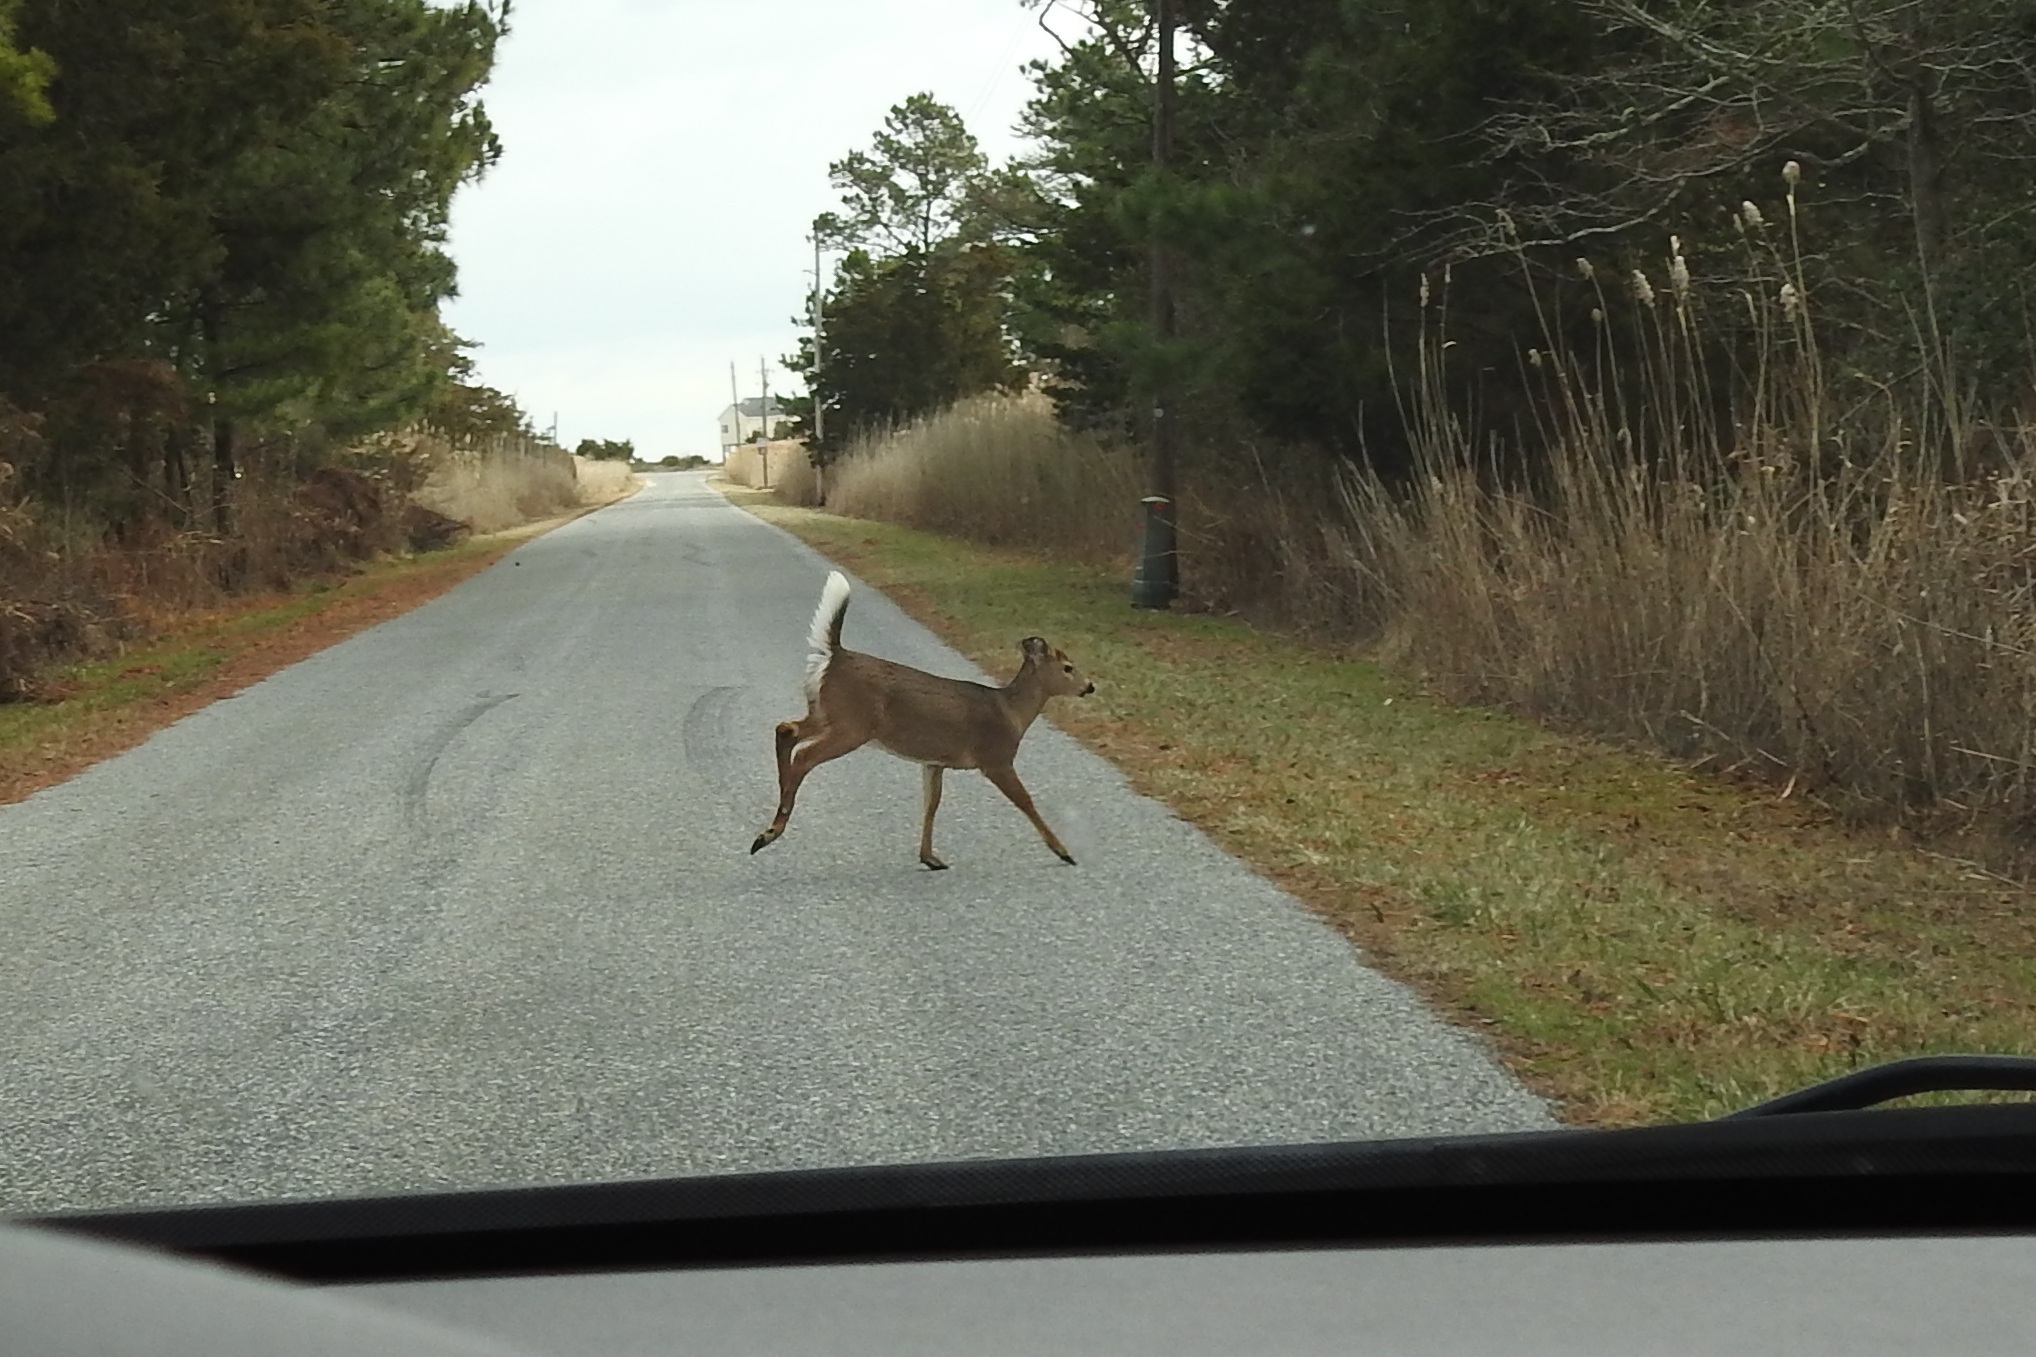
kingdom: Animalia
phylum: Chordata
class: Mammalia
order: Artiodactyla
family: Cervidae
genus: Odocoileus
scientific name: Odocoileus virginianus
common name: White-tailed deer
